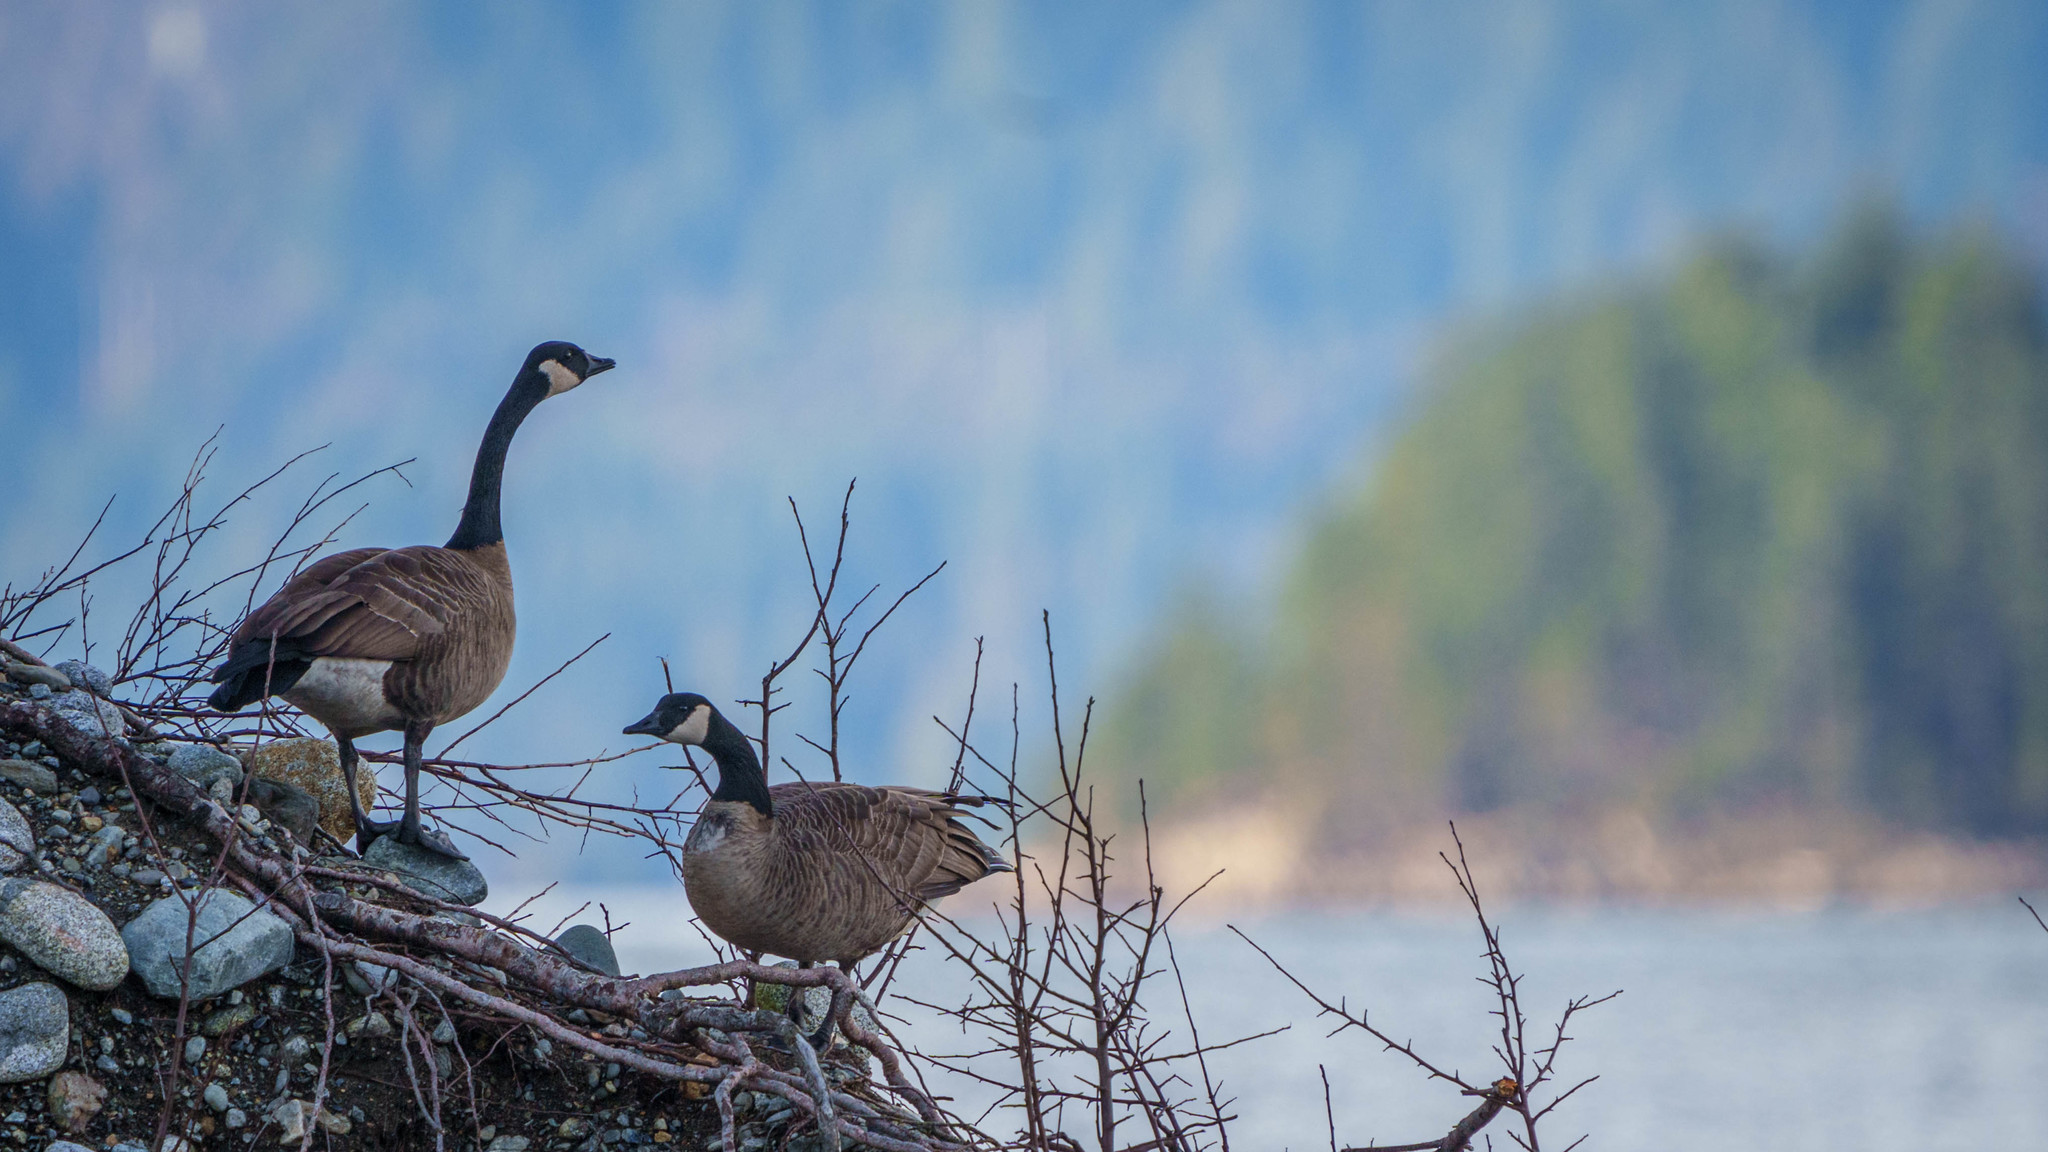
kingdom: Animalia
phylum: Chordata
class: Aves
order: Anseriformes
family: Anatidae
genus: Branta
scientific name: Branta canadensis
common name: Canada goose
